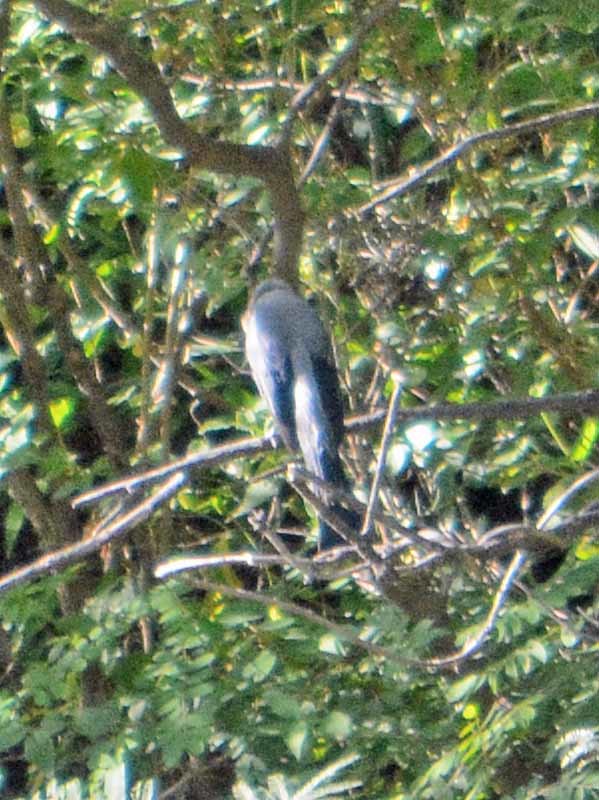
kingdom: Animalia
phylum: Chordata
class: Aves
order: Passeriformes
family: Ptilogonatidae
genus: Ptilogonys
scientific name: Ptilogonys cinereus
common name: Gray silky-flycatcher
